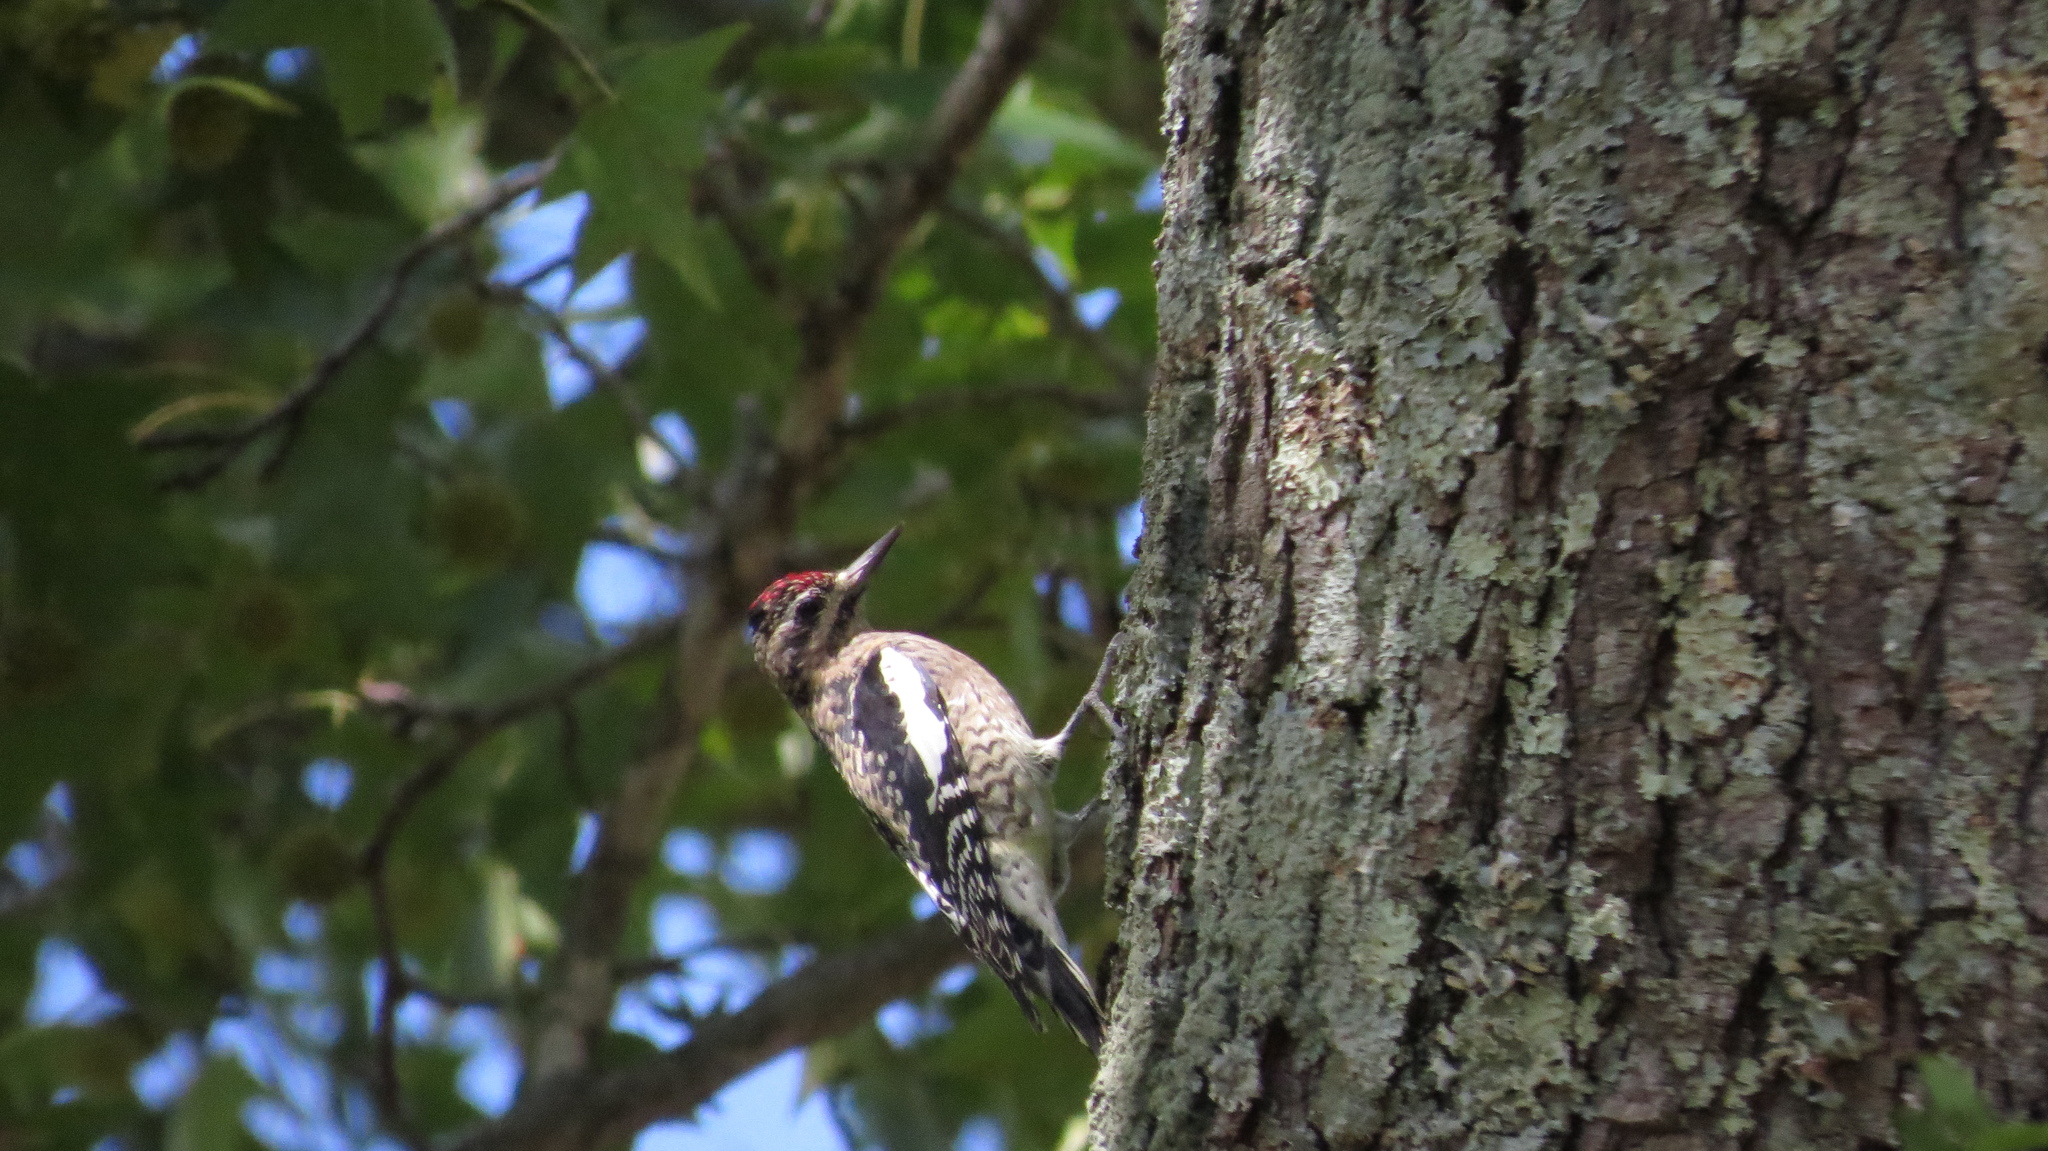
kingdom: Animalia
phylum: Chordata
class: Aves
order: Piciformes
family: Picidae
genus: Sphyrapicus
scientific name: Sphyrapicus varius
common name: Yellow-bellied sapsucker
